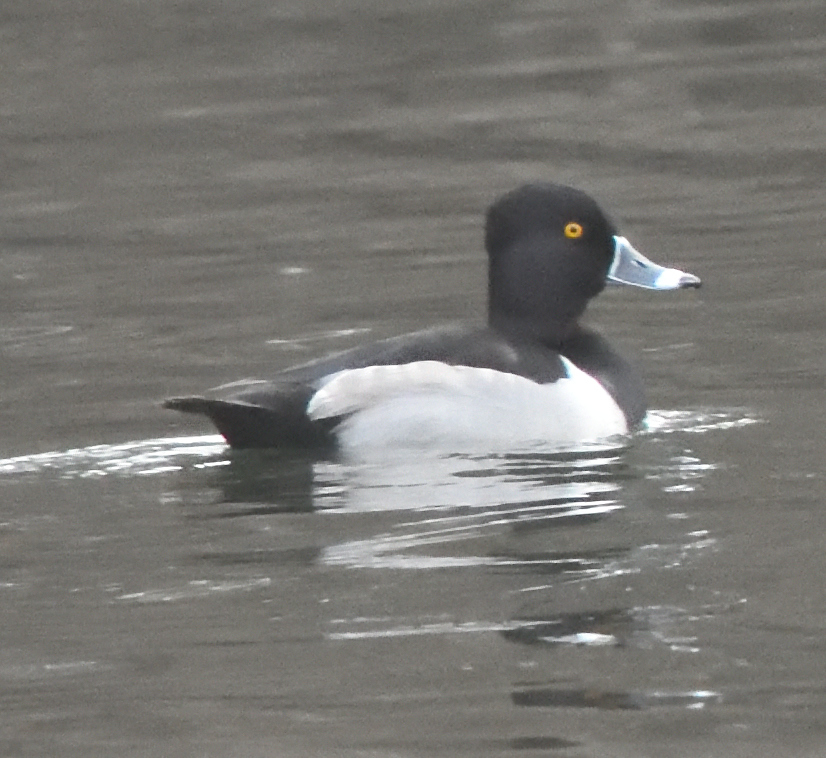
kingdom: Animalia
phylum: Chordata
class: Aves
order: Anseriformes
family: Anatidae
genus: Aythya
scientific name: Aythya collaris
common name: Ring-necked duck
